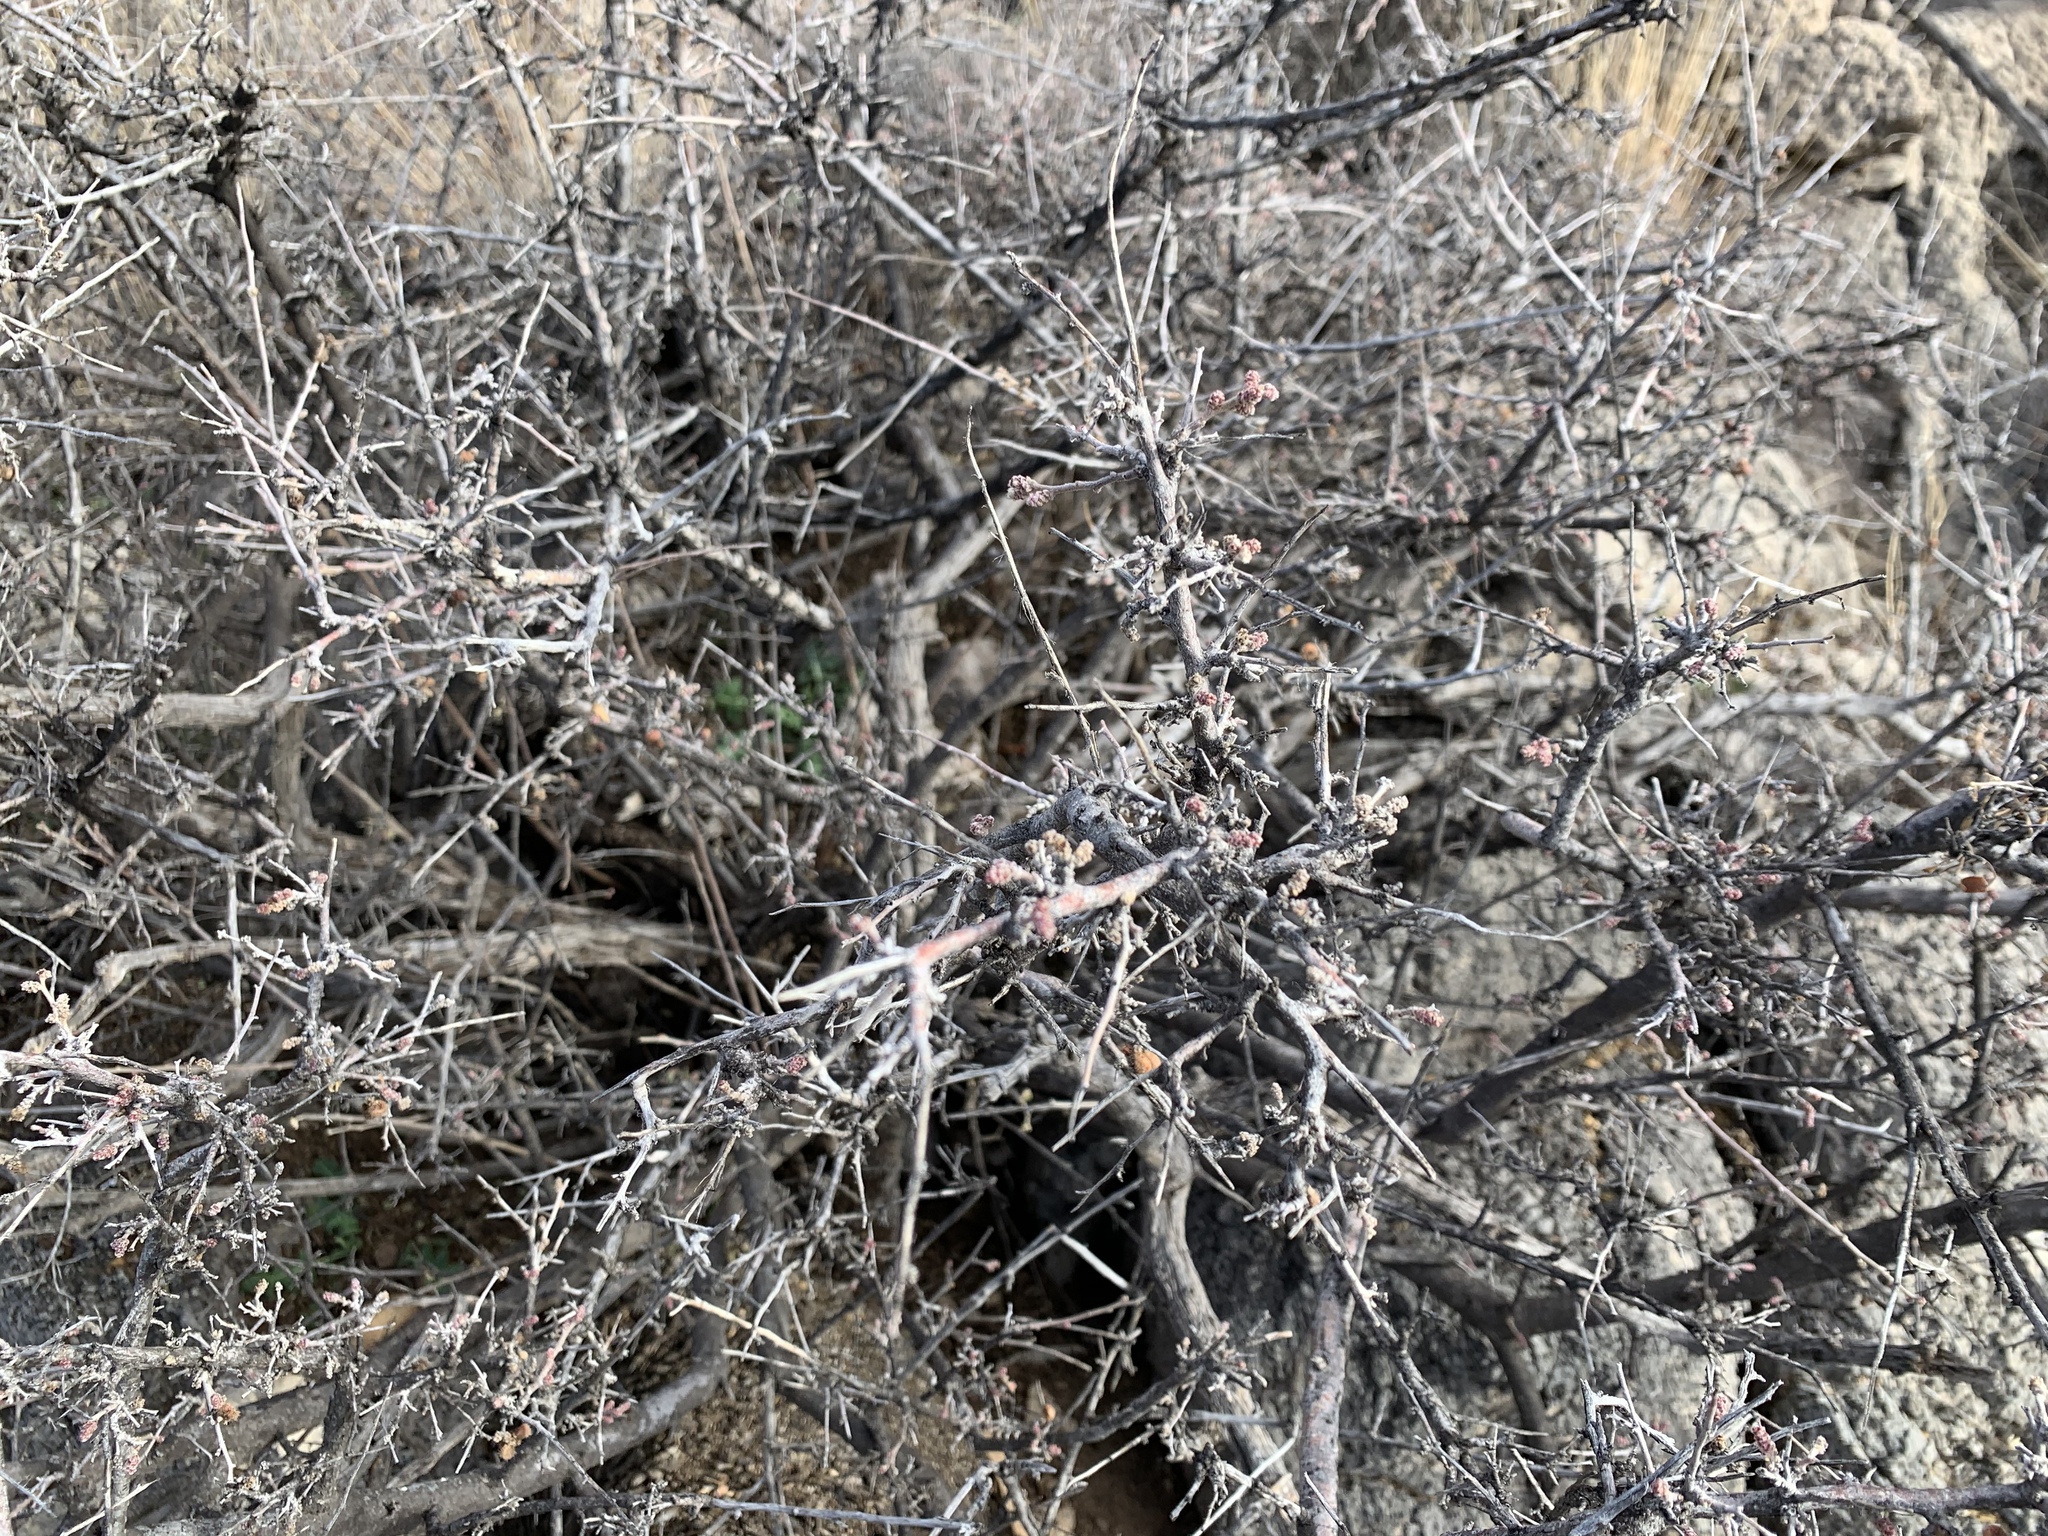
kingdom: Plantae
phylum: Tracheophyta
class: Magnoliopsida
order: Sapindales
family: Anacardiaceae
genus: Rhus
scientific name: Rhus microphylla
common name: Desert sumac
